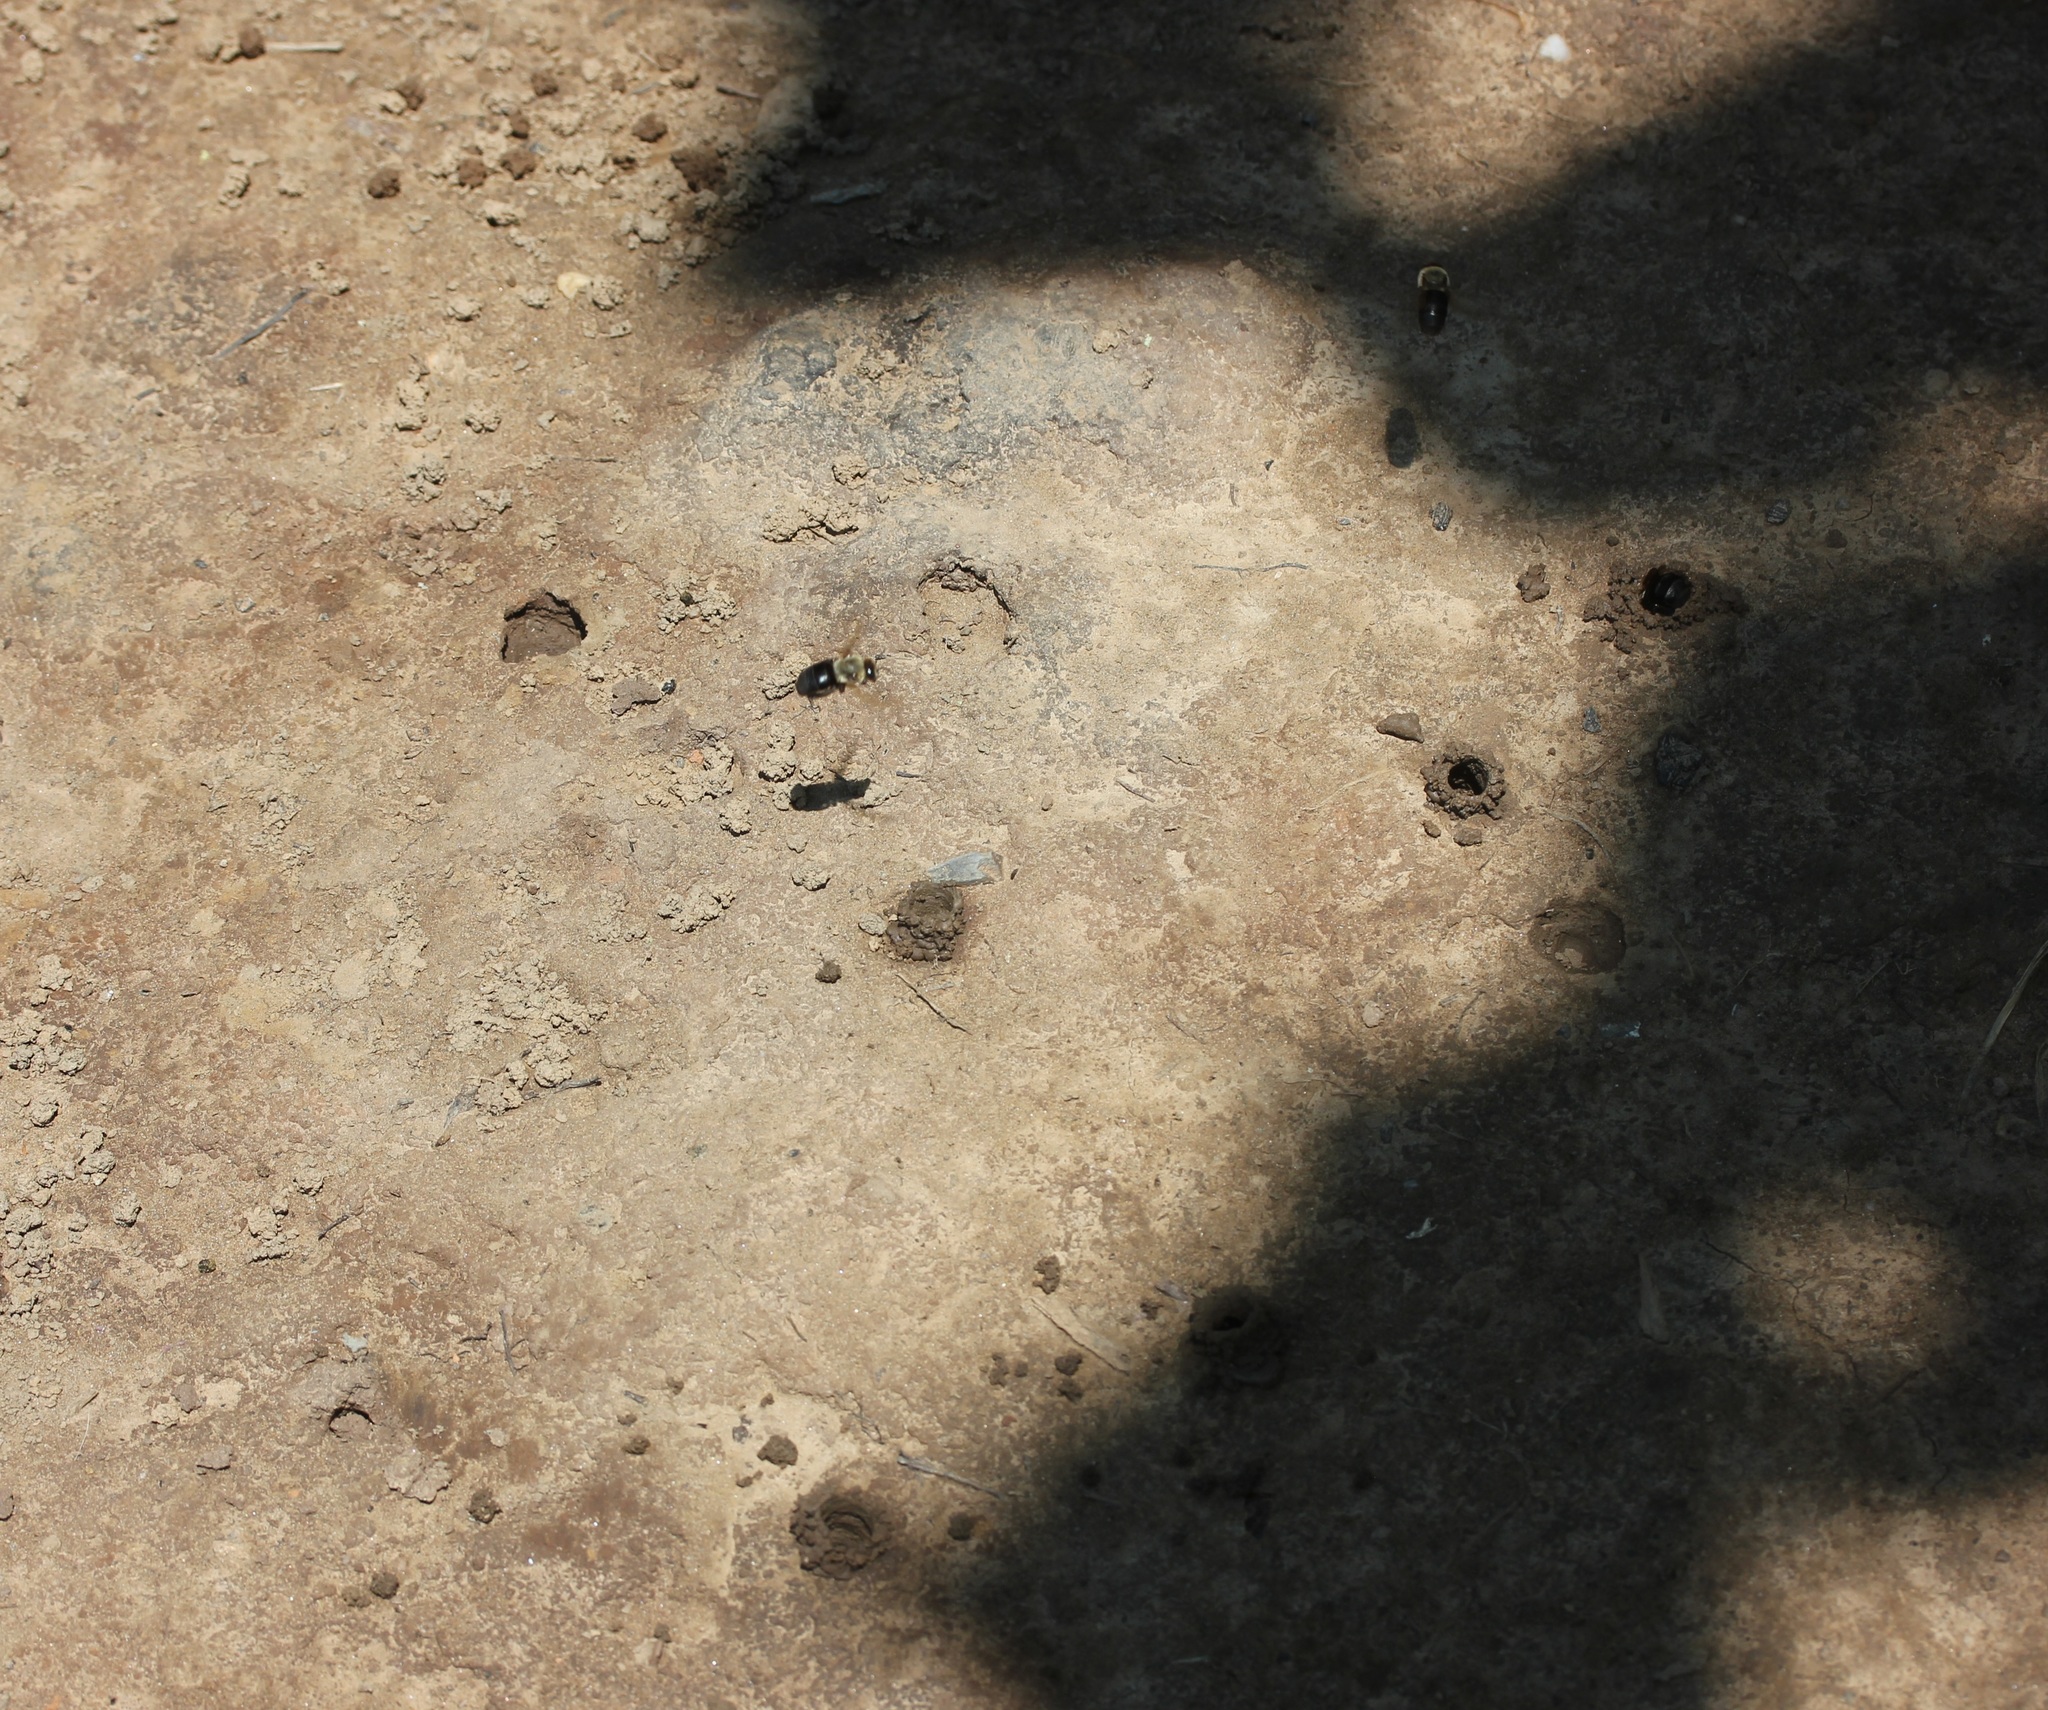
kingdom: Animalia
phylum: Arthropoda
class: Insecta
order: Hymenoptera
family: Apidae
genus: Ptilothrix
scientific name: Ptilothrix bombiformis
